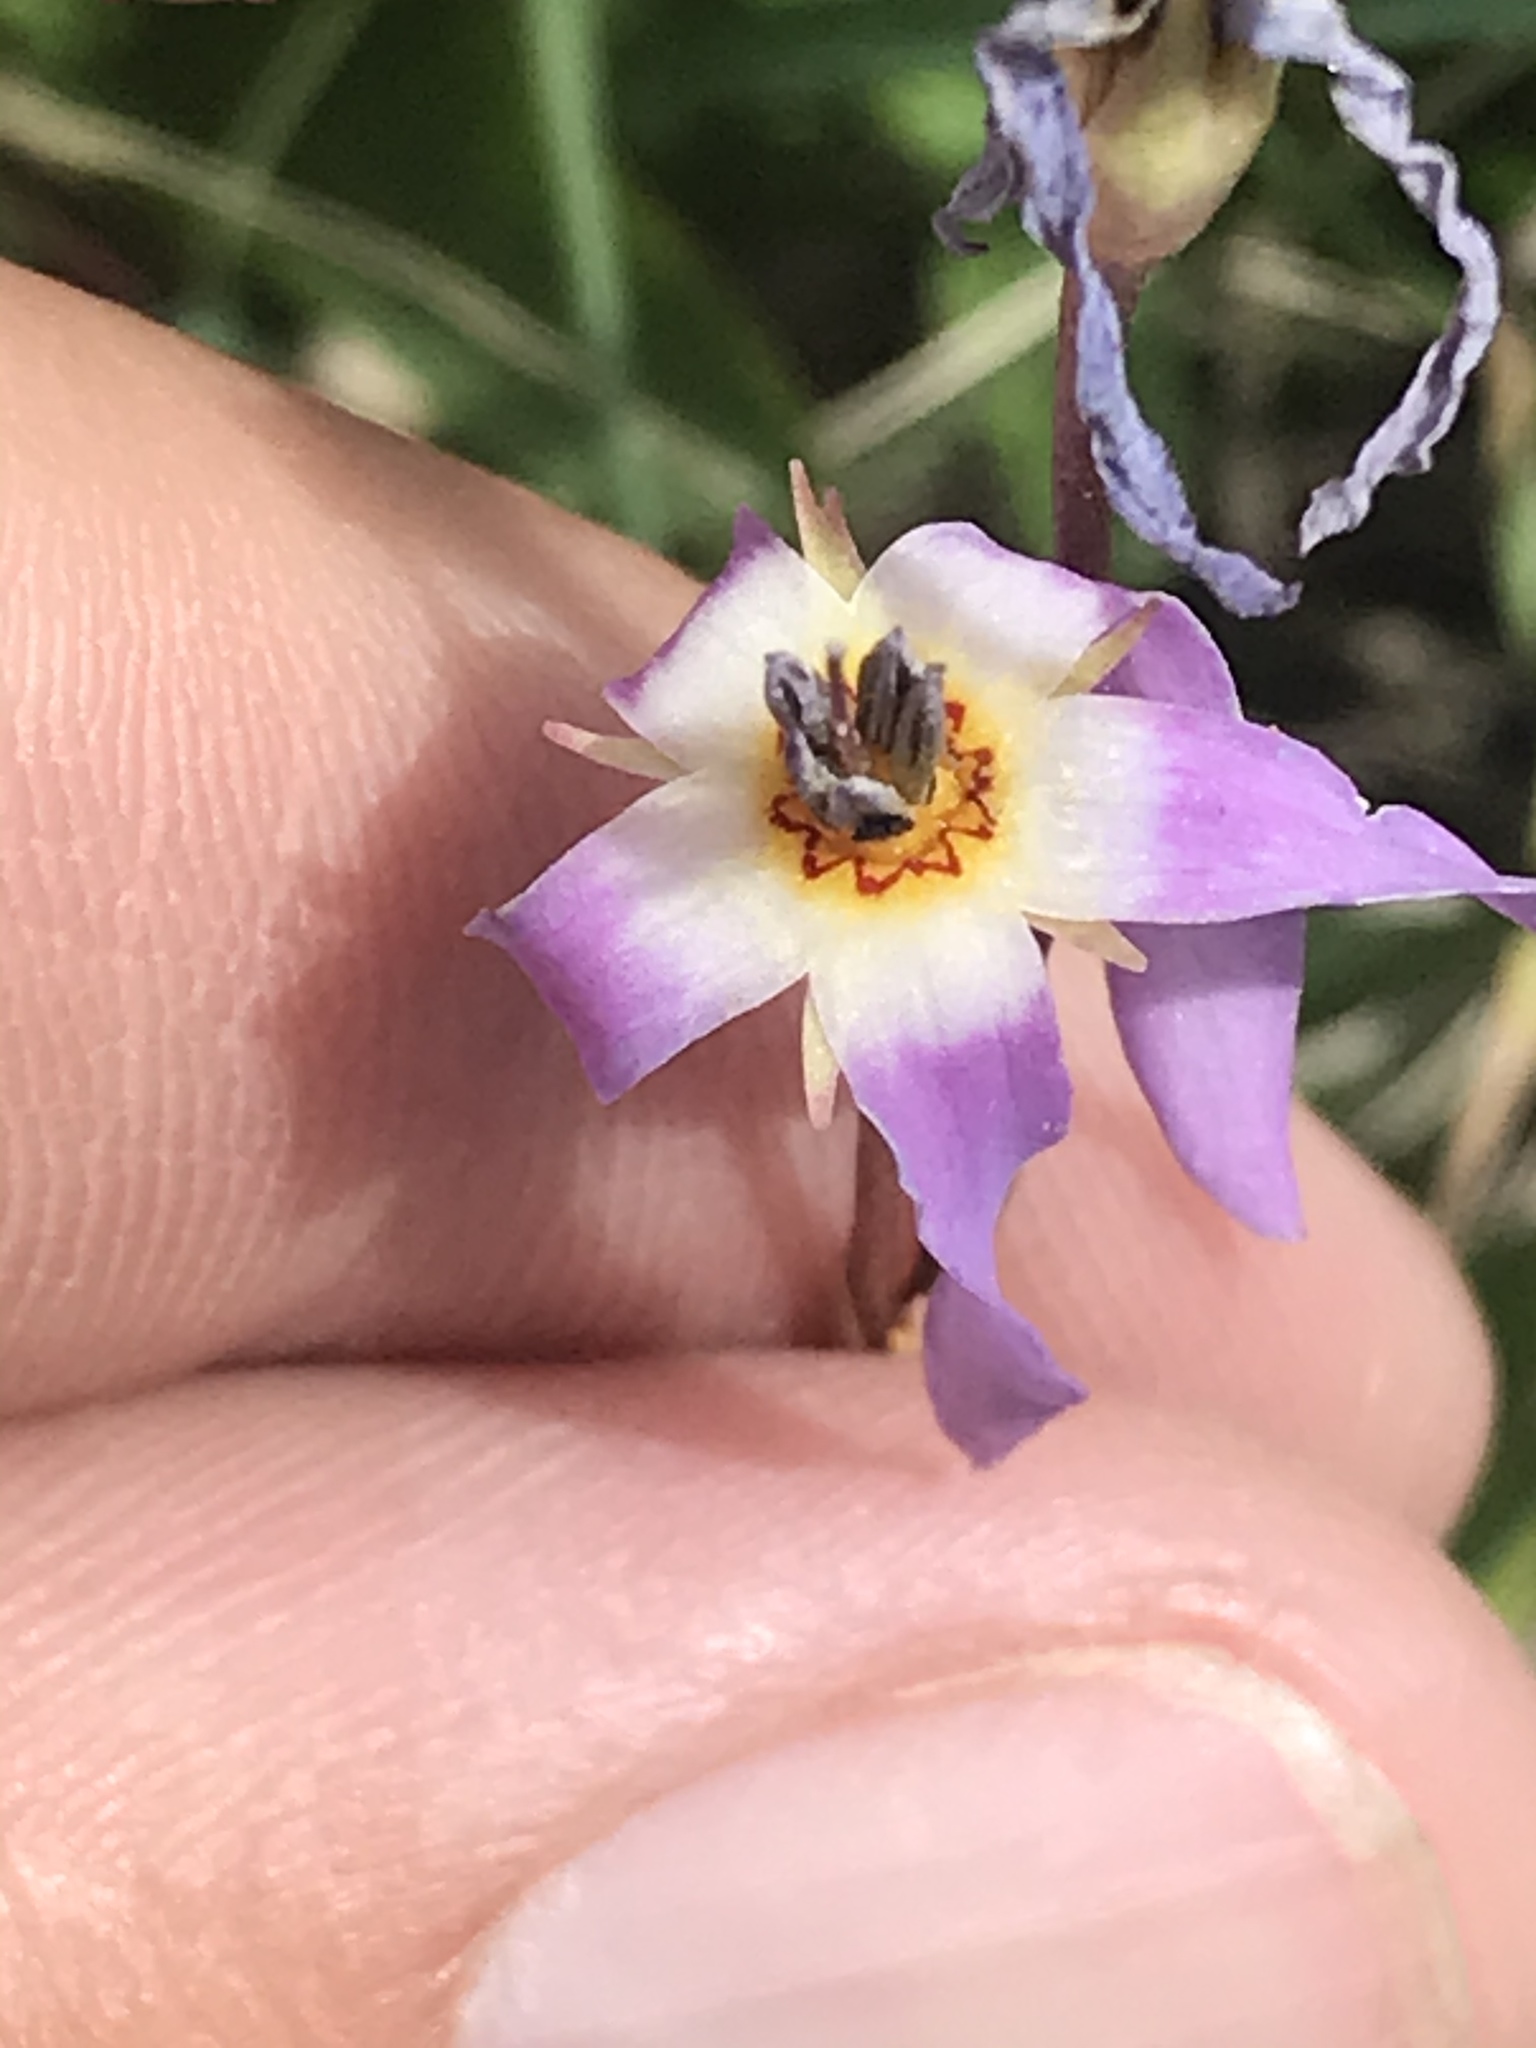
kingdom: Plantae
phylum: Tracheophyta
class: Magnoliopsida
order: Ericales
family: Primulaceae
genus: Dodecatheon
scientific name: Dodecatheon pulchellum
